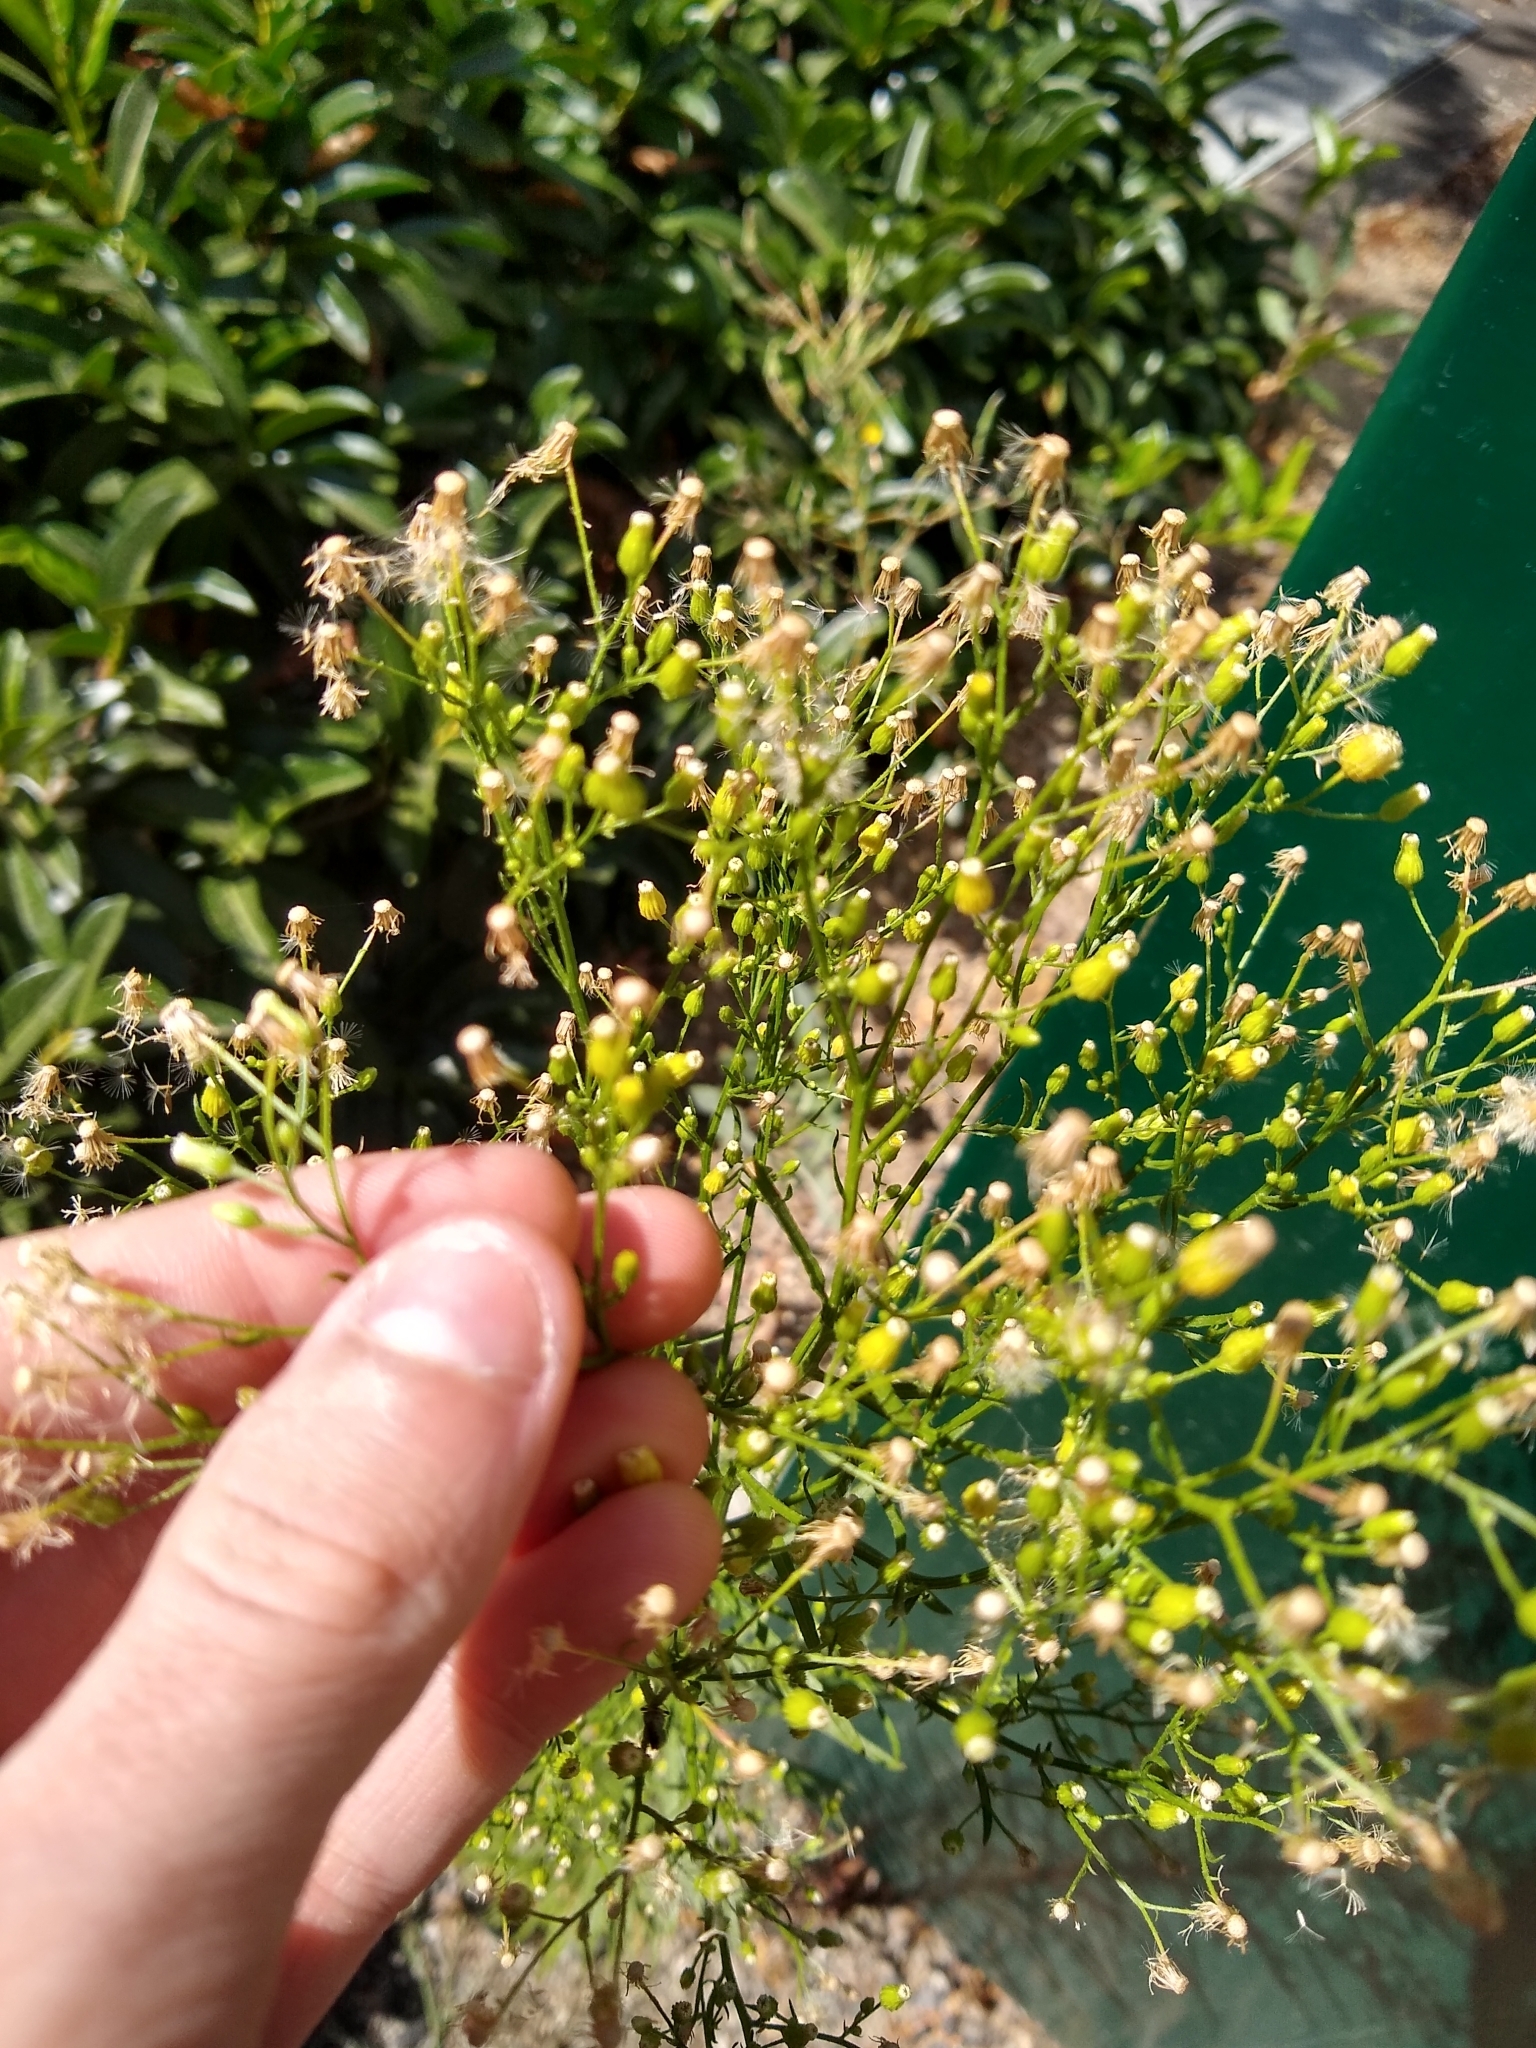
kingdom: Plantae
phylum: Tracheophyta
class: Magnoliopsida
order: Asterales
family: Asteraceae
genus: Erigeron
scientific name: Erigeron canadensis
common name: Canadian fleabane
